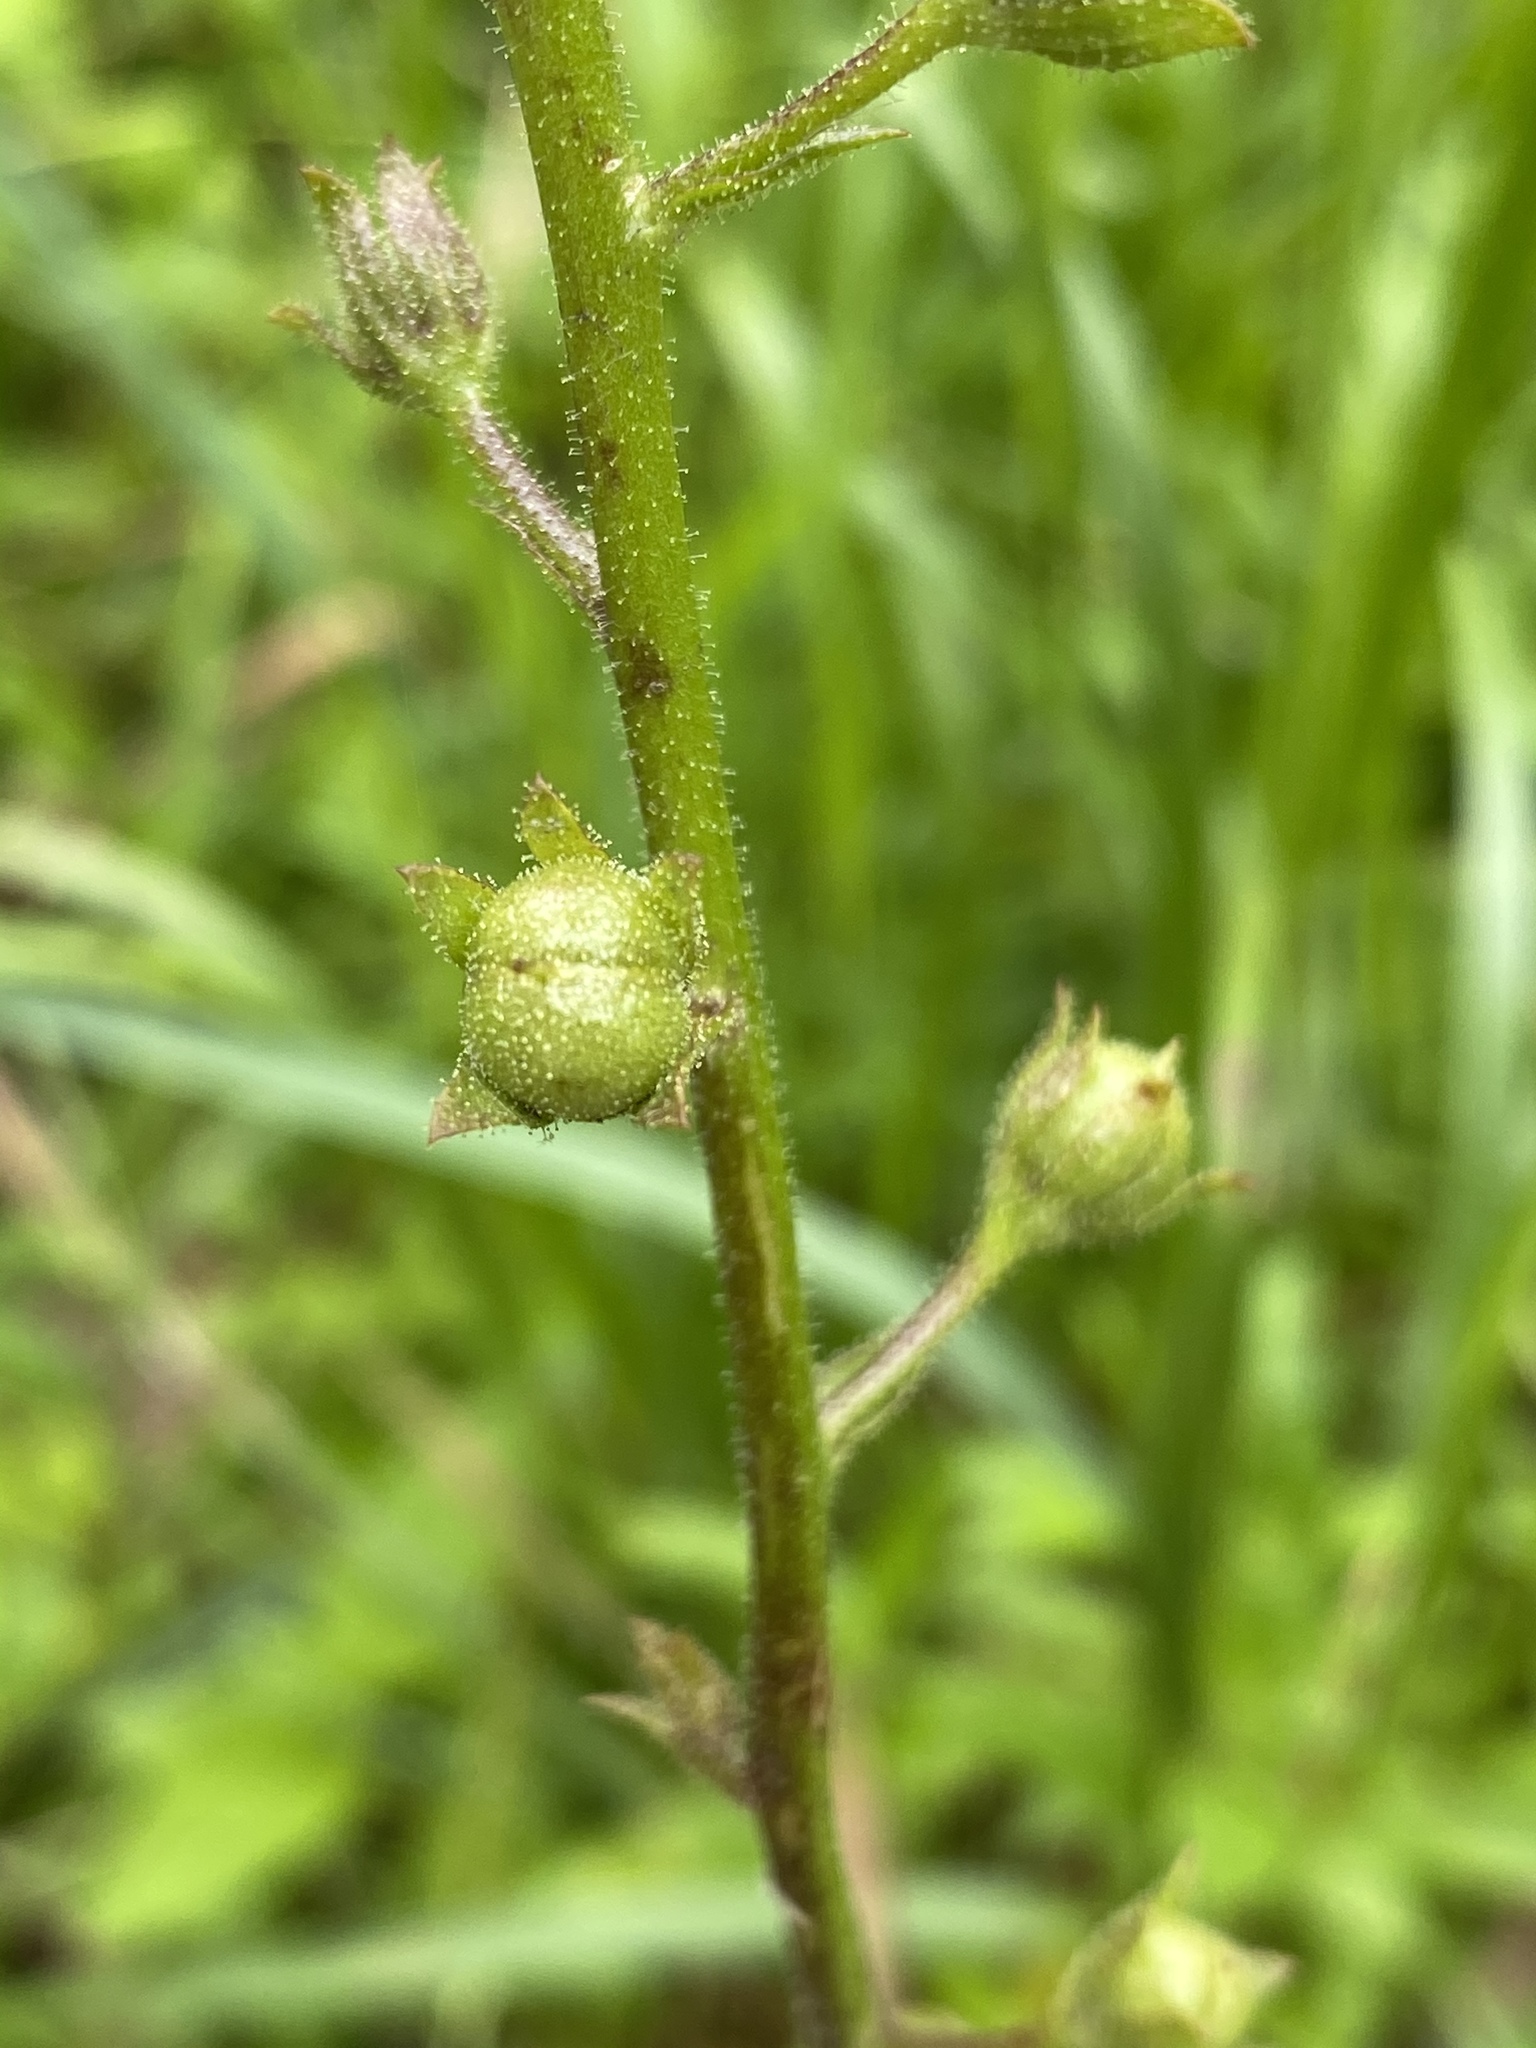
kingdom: Plantae
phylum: Tracheophyta
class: Magnoliopsida
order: Lamiales
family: Scrophulariaceae
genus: Verbascum
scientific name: Verbascum blattaria
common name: Moth mullein
